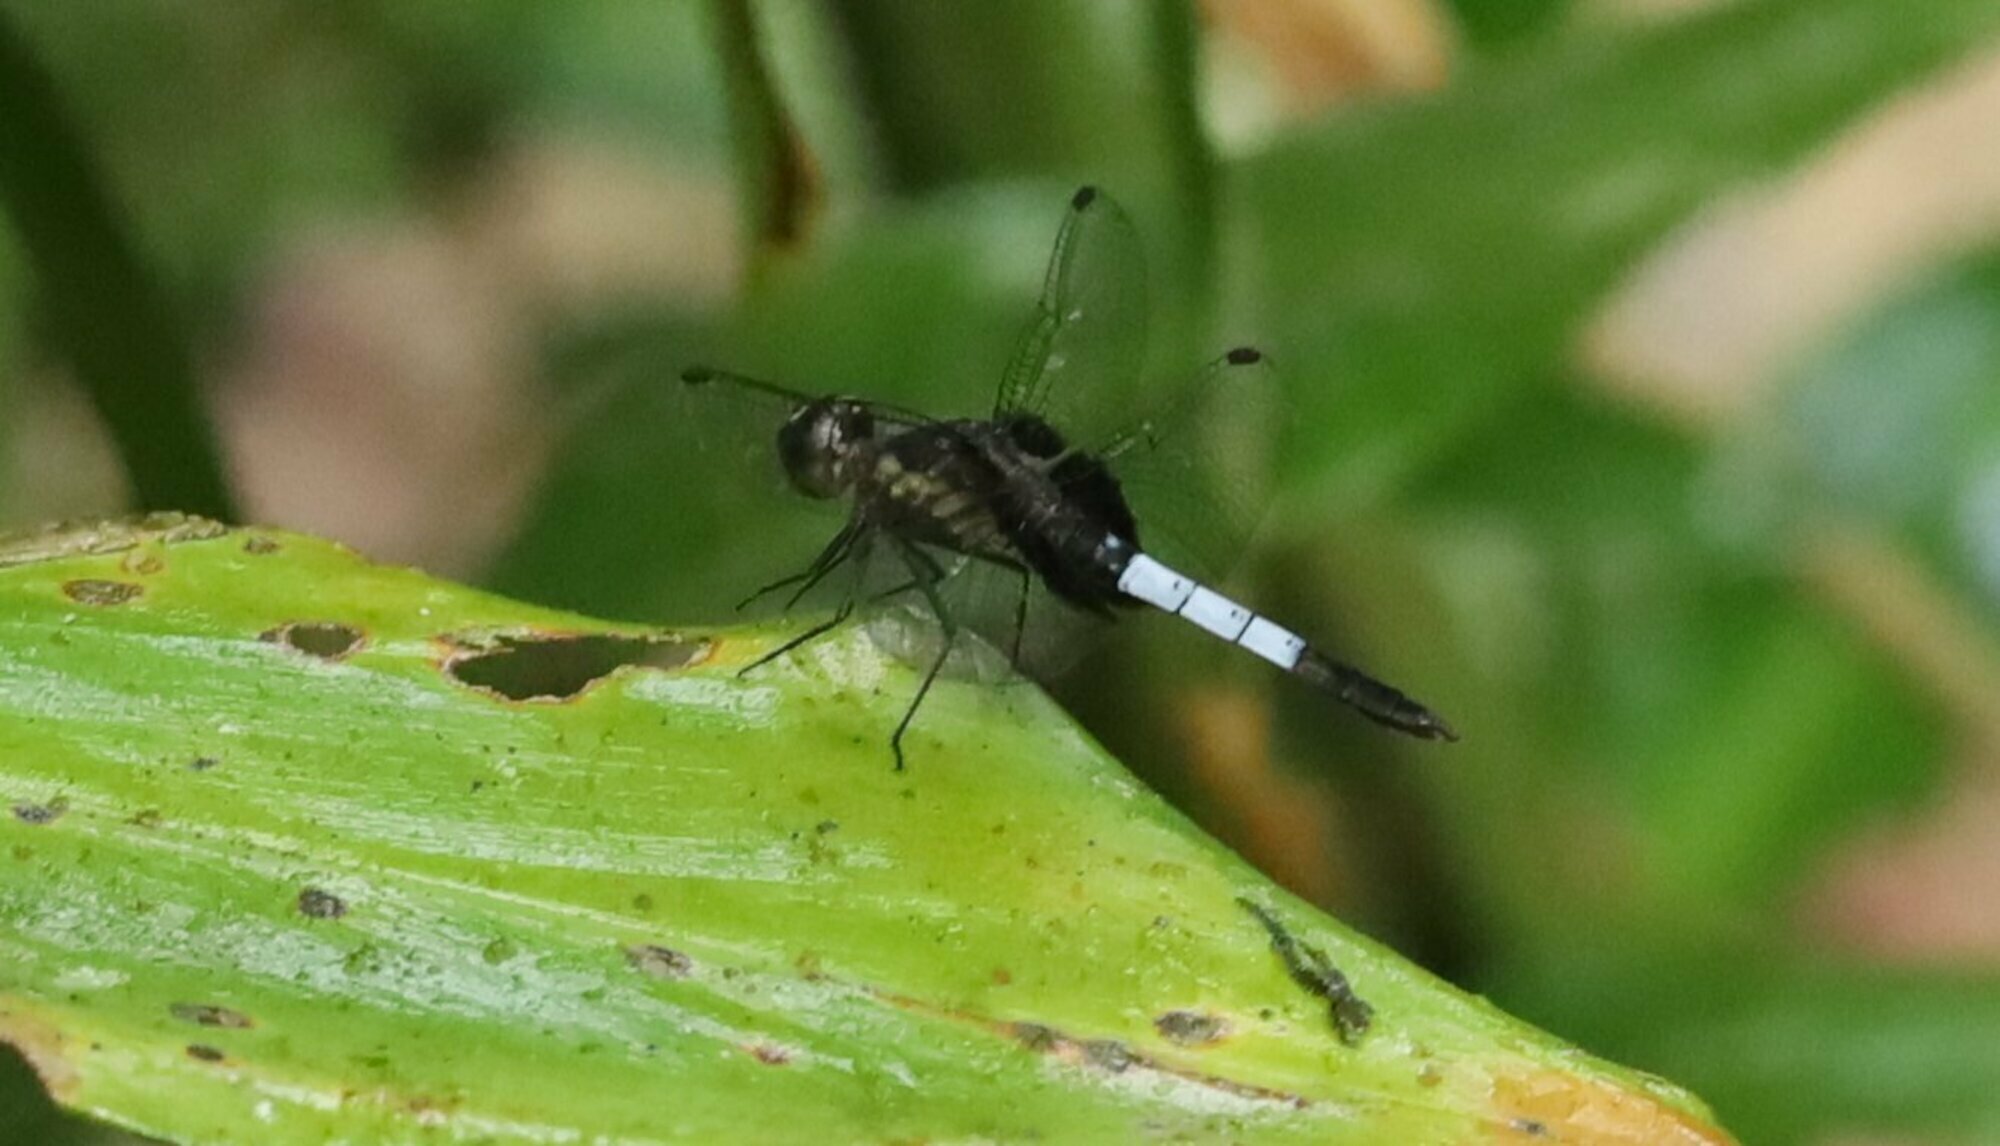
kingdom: Animalia
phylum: Arthropoda
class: Insecta
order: Odonata
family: Libellulidae
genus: Erythrodiplax
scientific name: Erythrodiplax unimaculata
